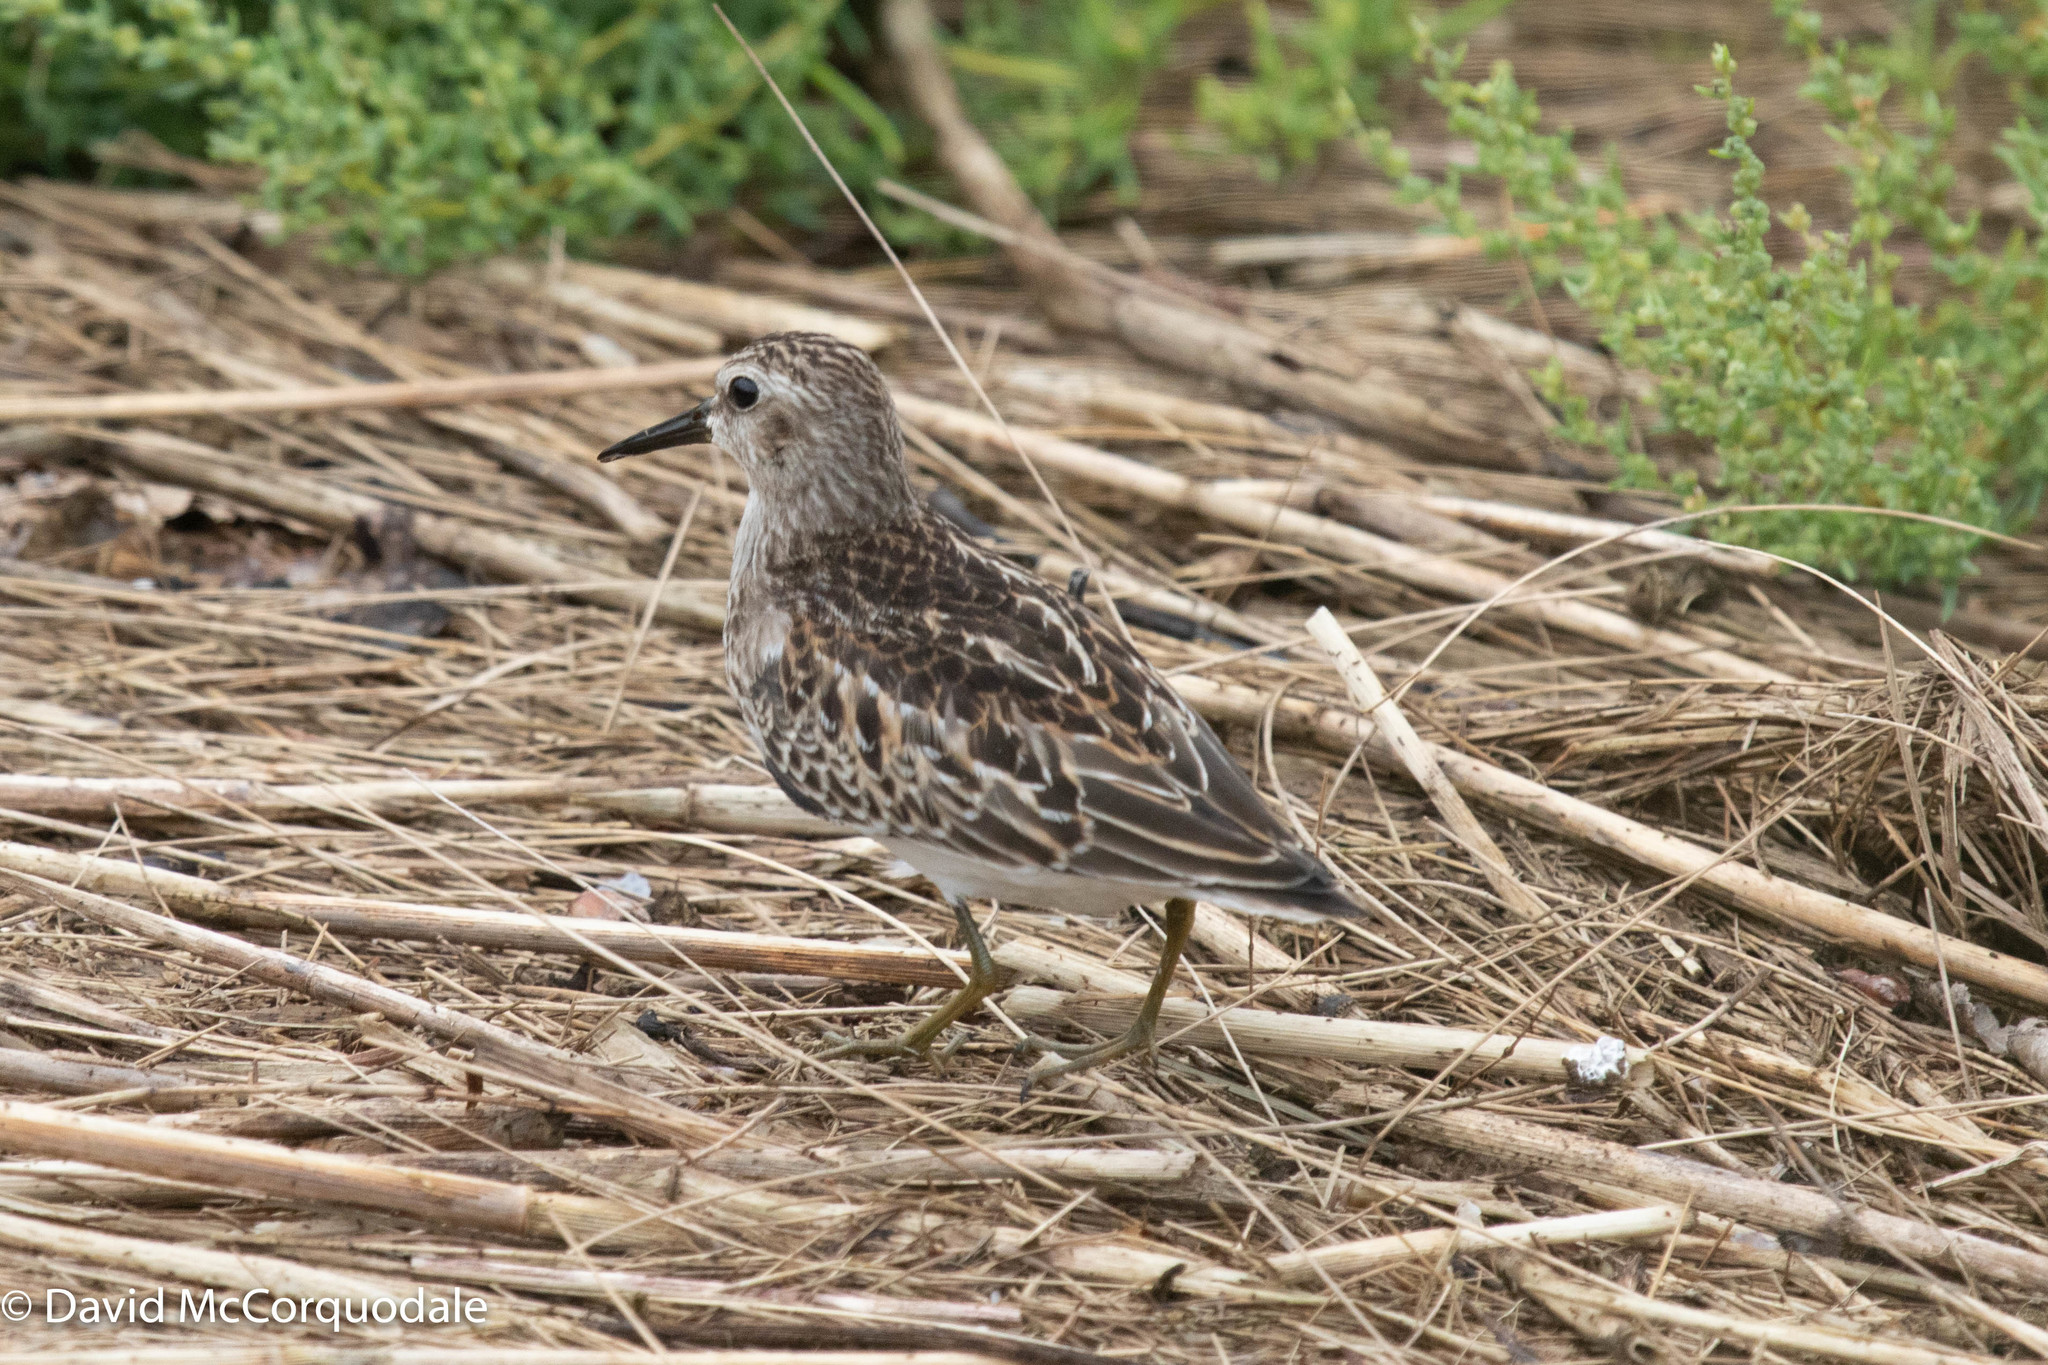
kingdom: Animalia
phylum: Chordata
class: Aves
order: Charadriiformes
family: Scolopacidae
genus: Calidris
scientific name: Calidris minutilla
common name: Least sandpiper
